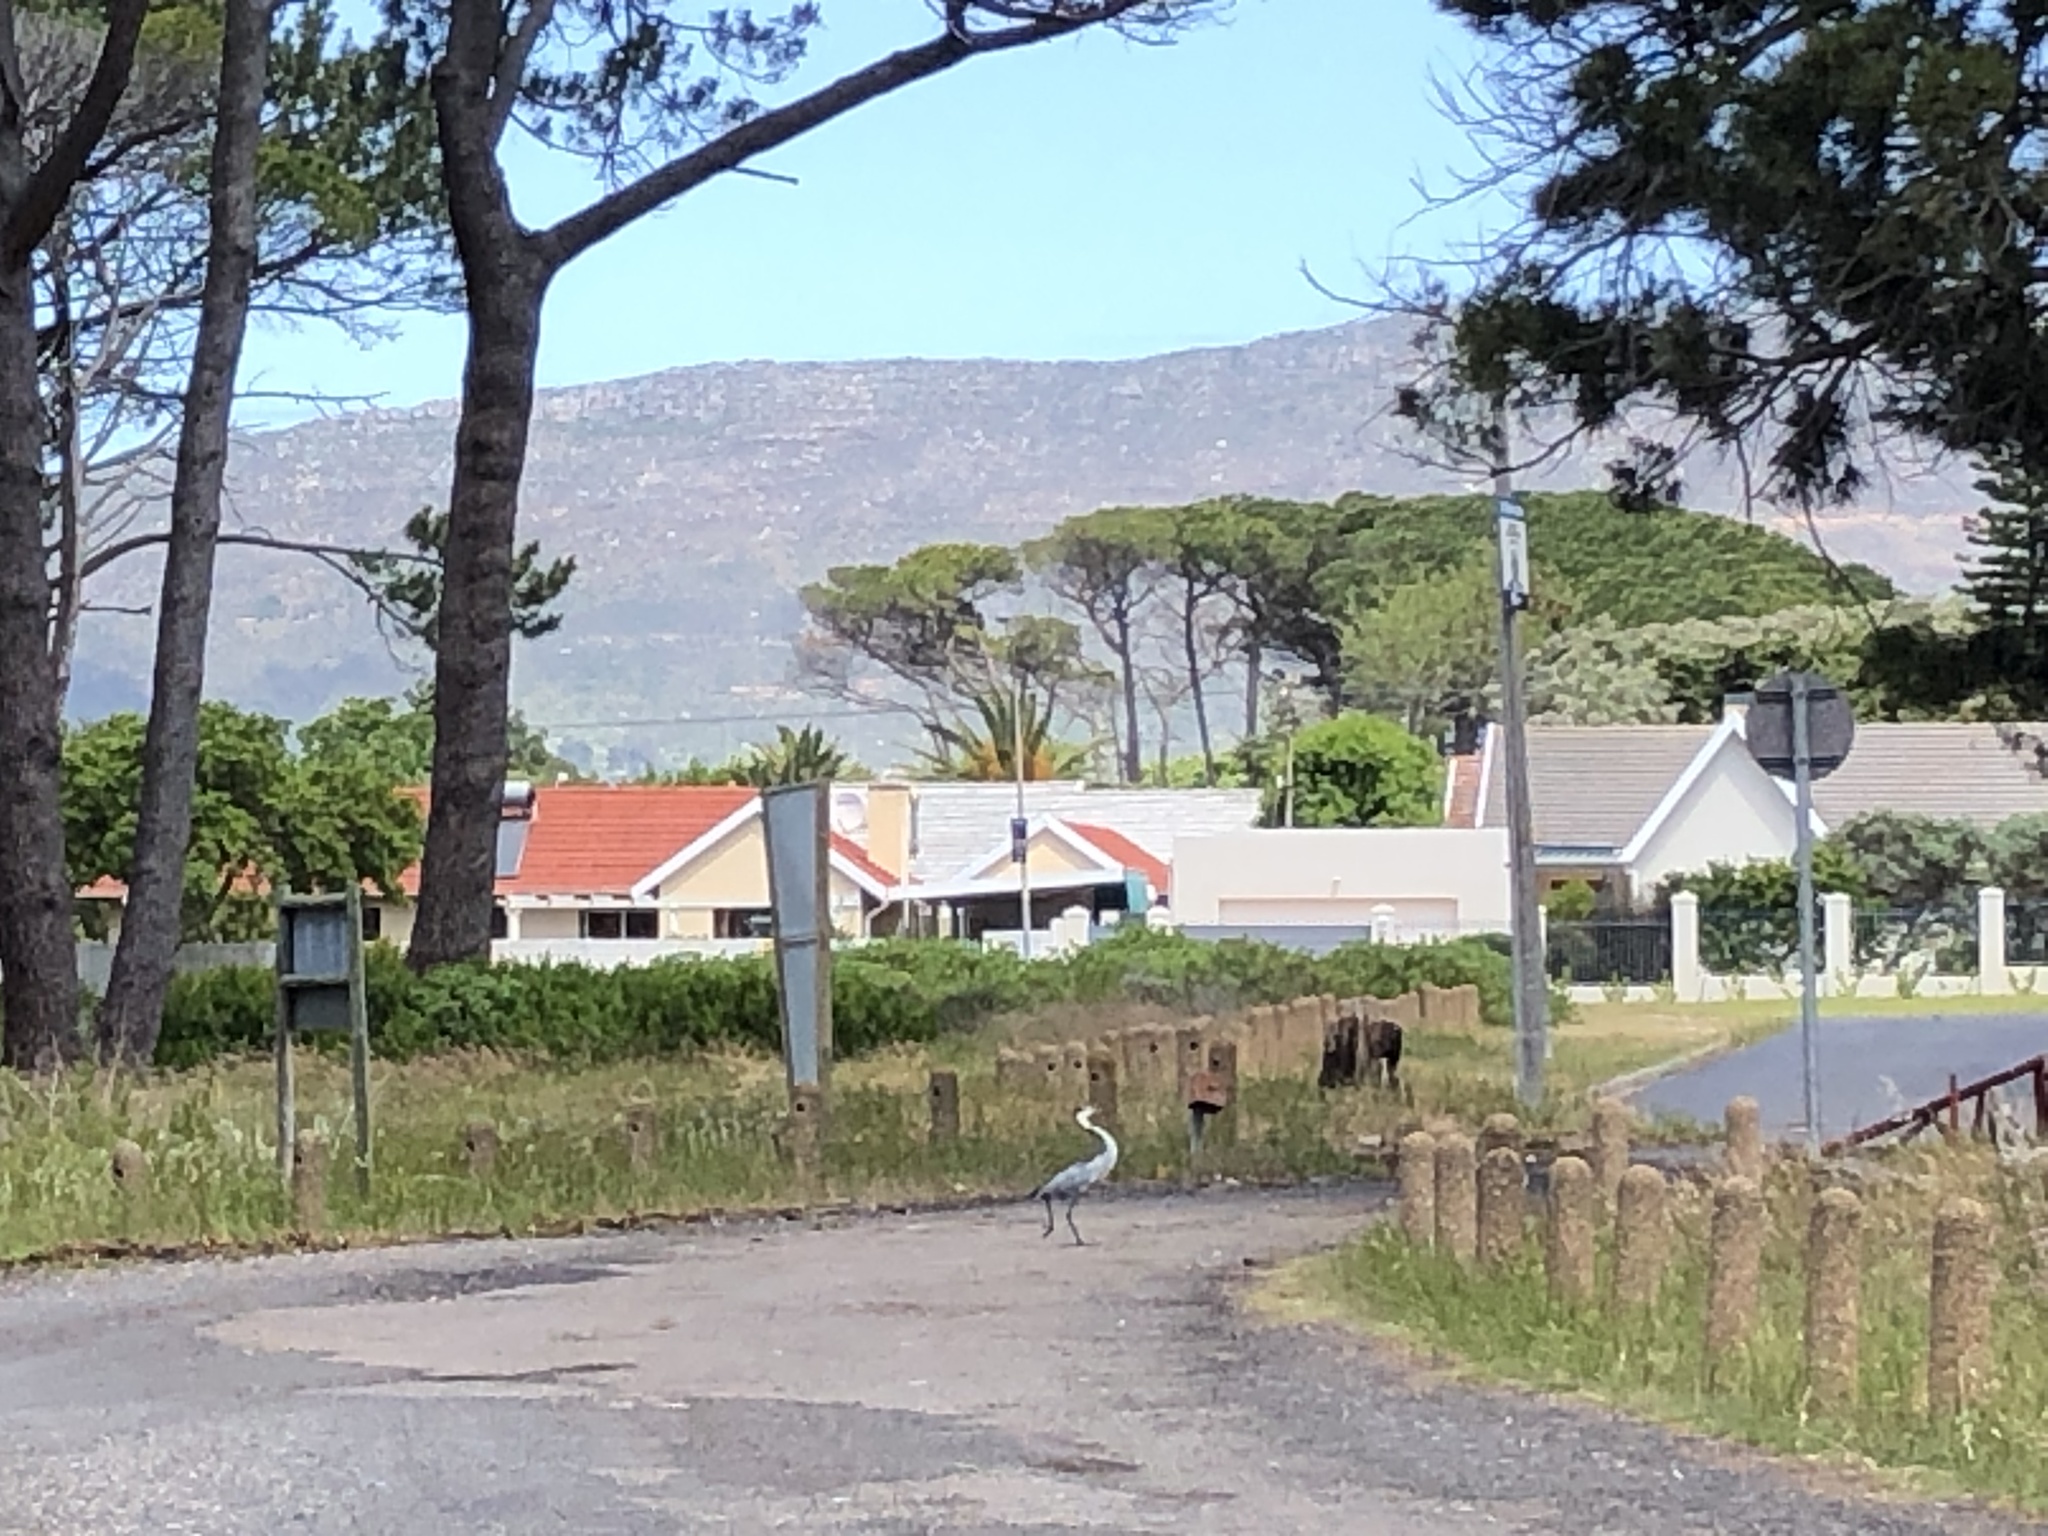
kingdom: Animalia
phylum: Chordata
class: Aves
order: Pelecaniformes
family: Ardeidae
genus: Ardea
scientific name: Ardea melanocephala
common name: Black-headed heron
